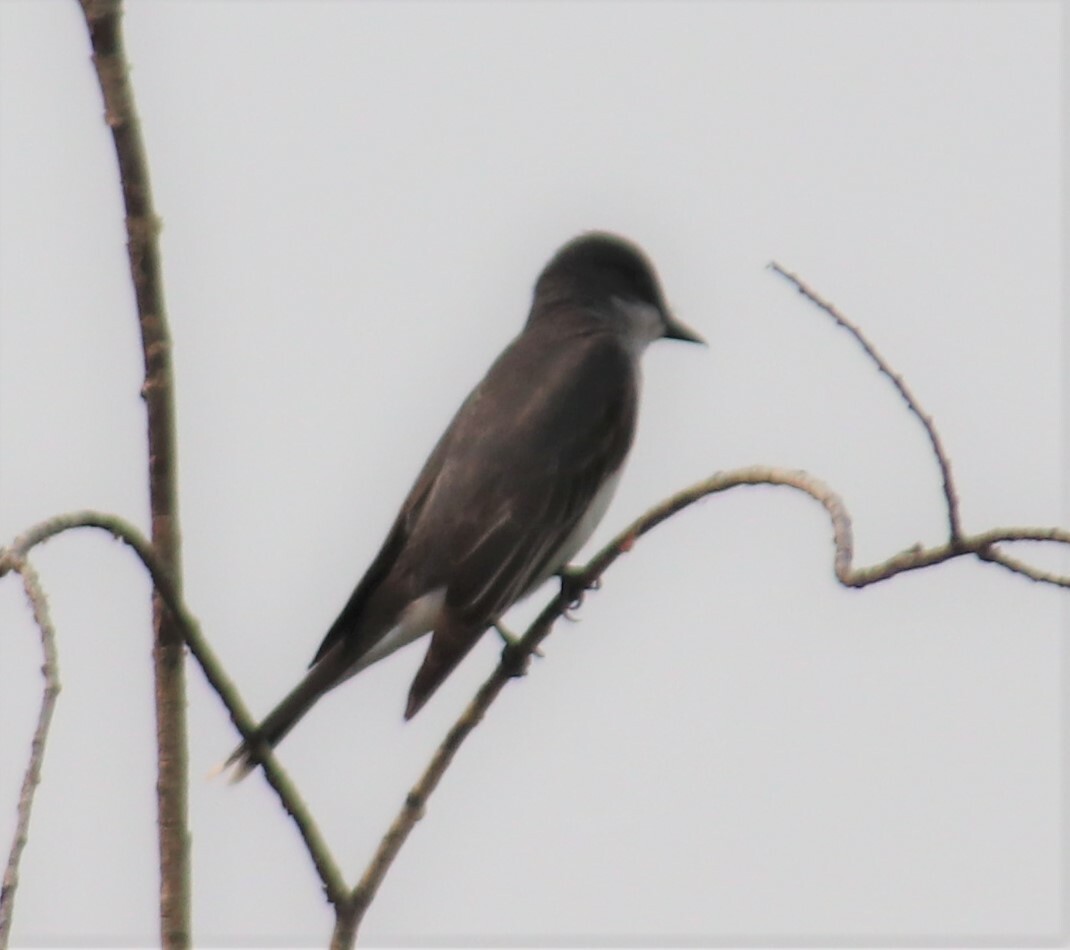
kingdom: Animalia
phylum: Chordata
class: Aves
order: Passeriformes
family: Tyrannidae
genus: Tyrannus
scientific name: Tyrannus tyrannus
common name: Eastern kingbird
